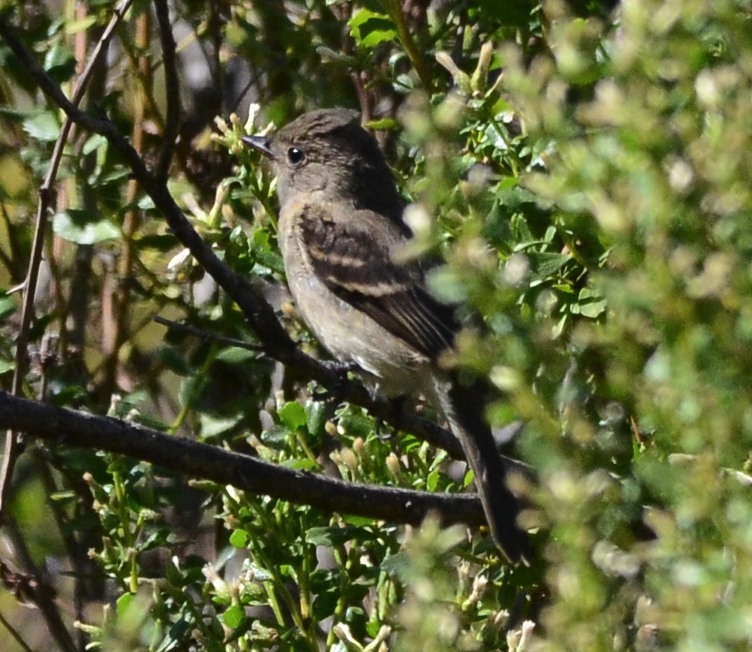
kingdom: Animalia
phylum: Chordata
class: Aves
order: Passeriformes
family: Tyrannidae
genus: Contopus
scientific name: Contopus sordidulus
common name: Western wood-pewee
